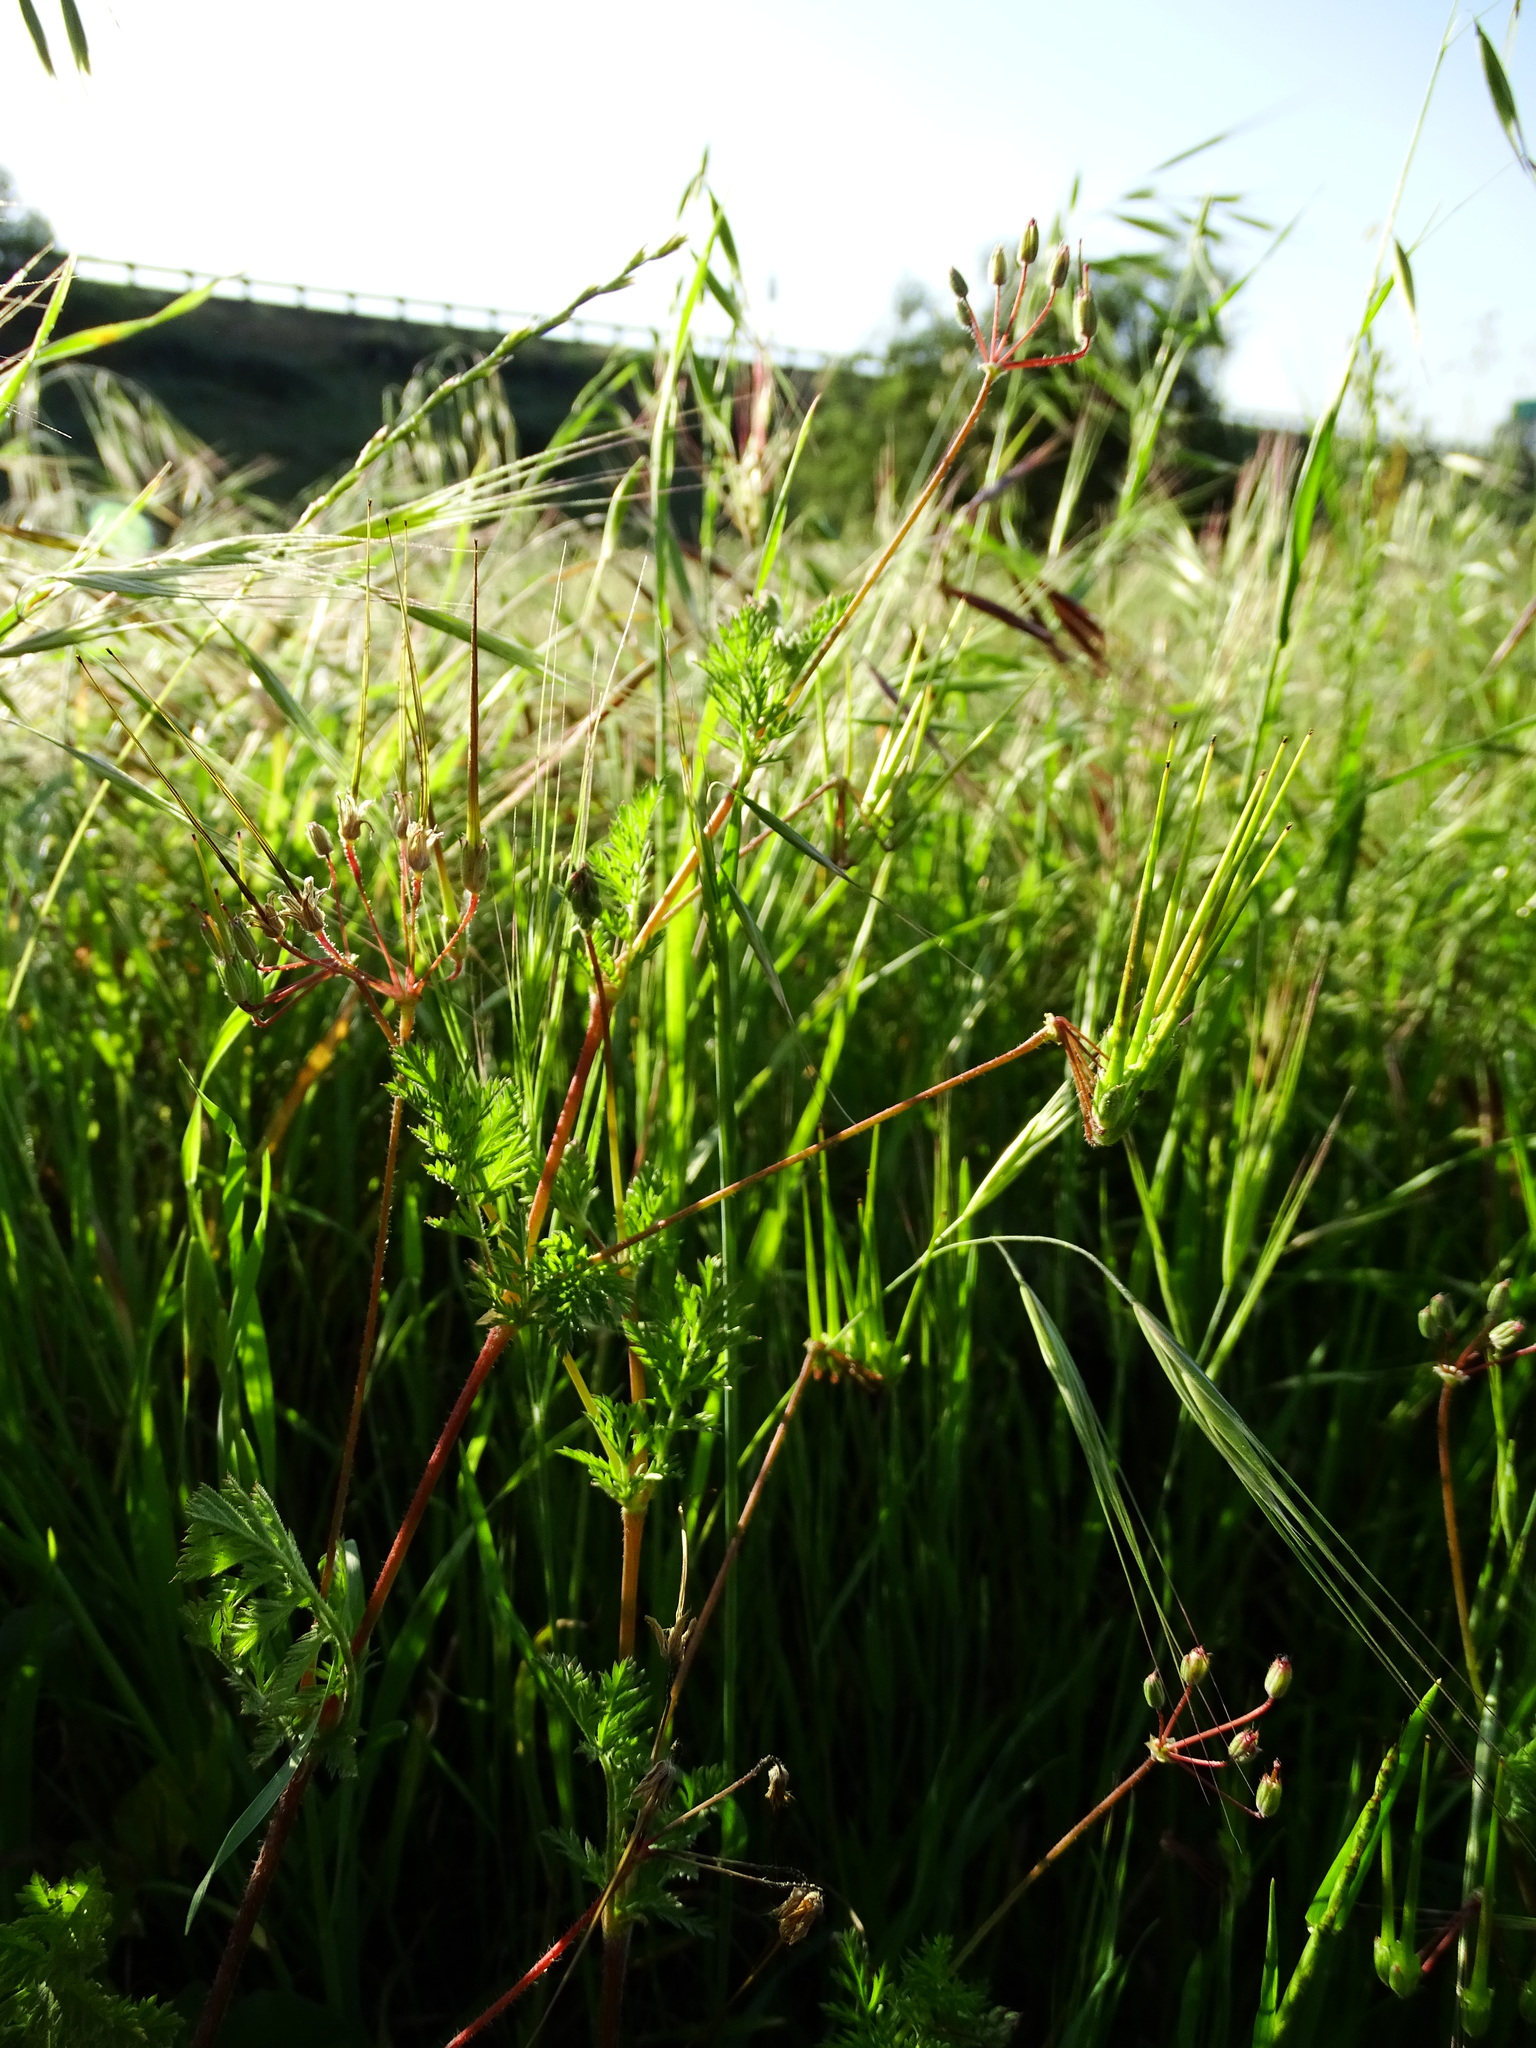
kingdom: Plantae
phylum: Tracheophyta
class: Magnoliopsida
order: Geraniales
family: Geraniaceae
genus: Erodium
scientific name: Erodium cicutarium
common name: Common stork's-bill
